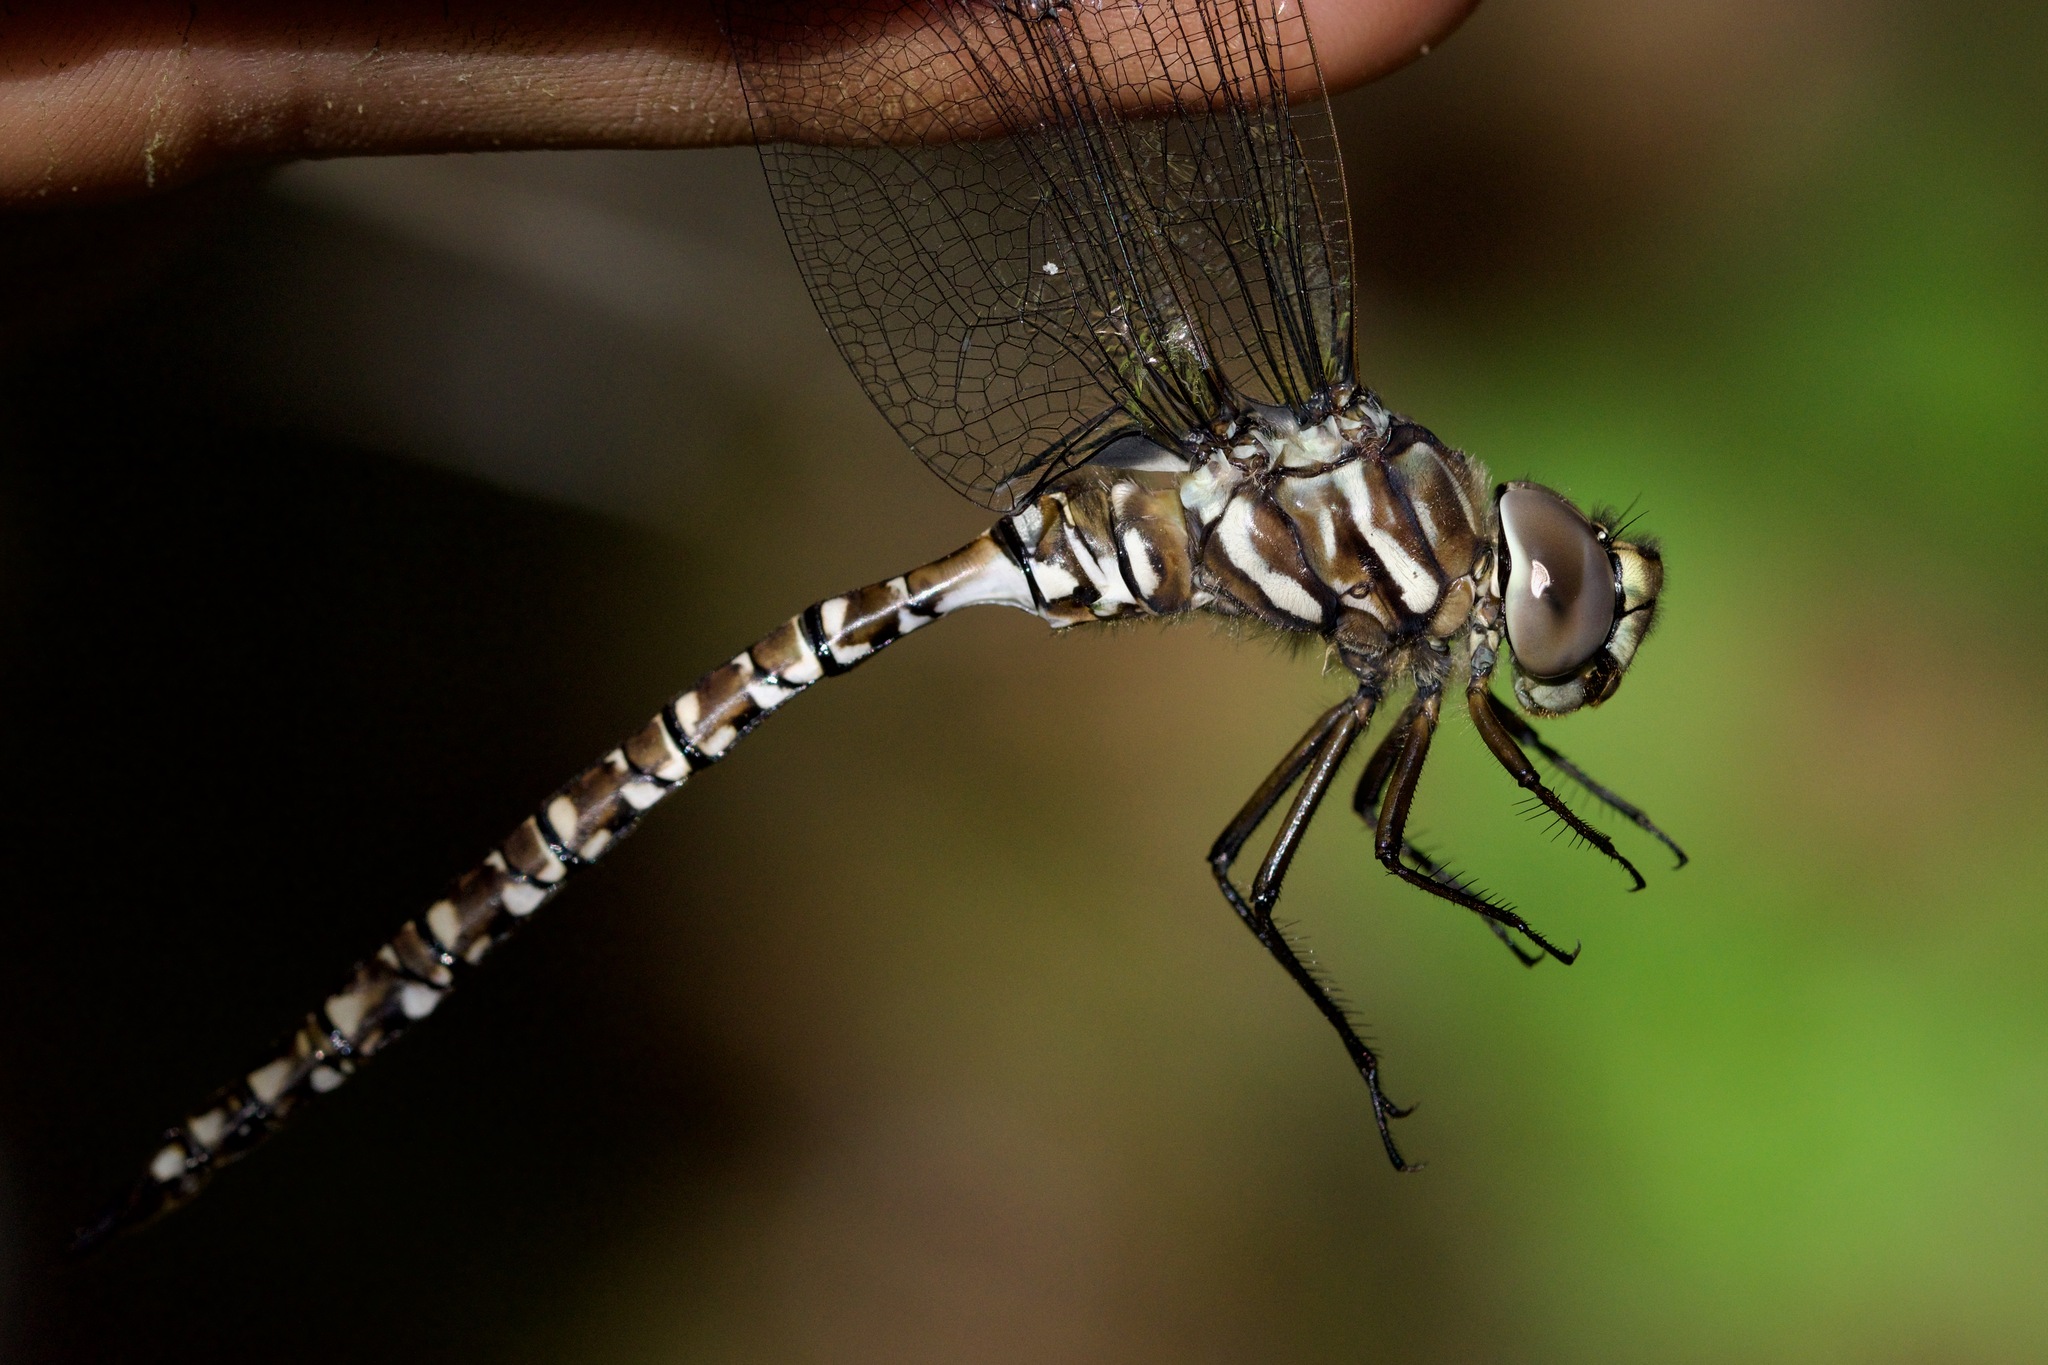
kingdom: Animalia
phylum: Arthropoda
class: Insecta
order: Odonata
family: Aeshnidae
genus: Aeshna
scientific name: Aeshna subarctica
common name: Subarctic darner
